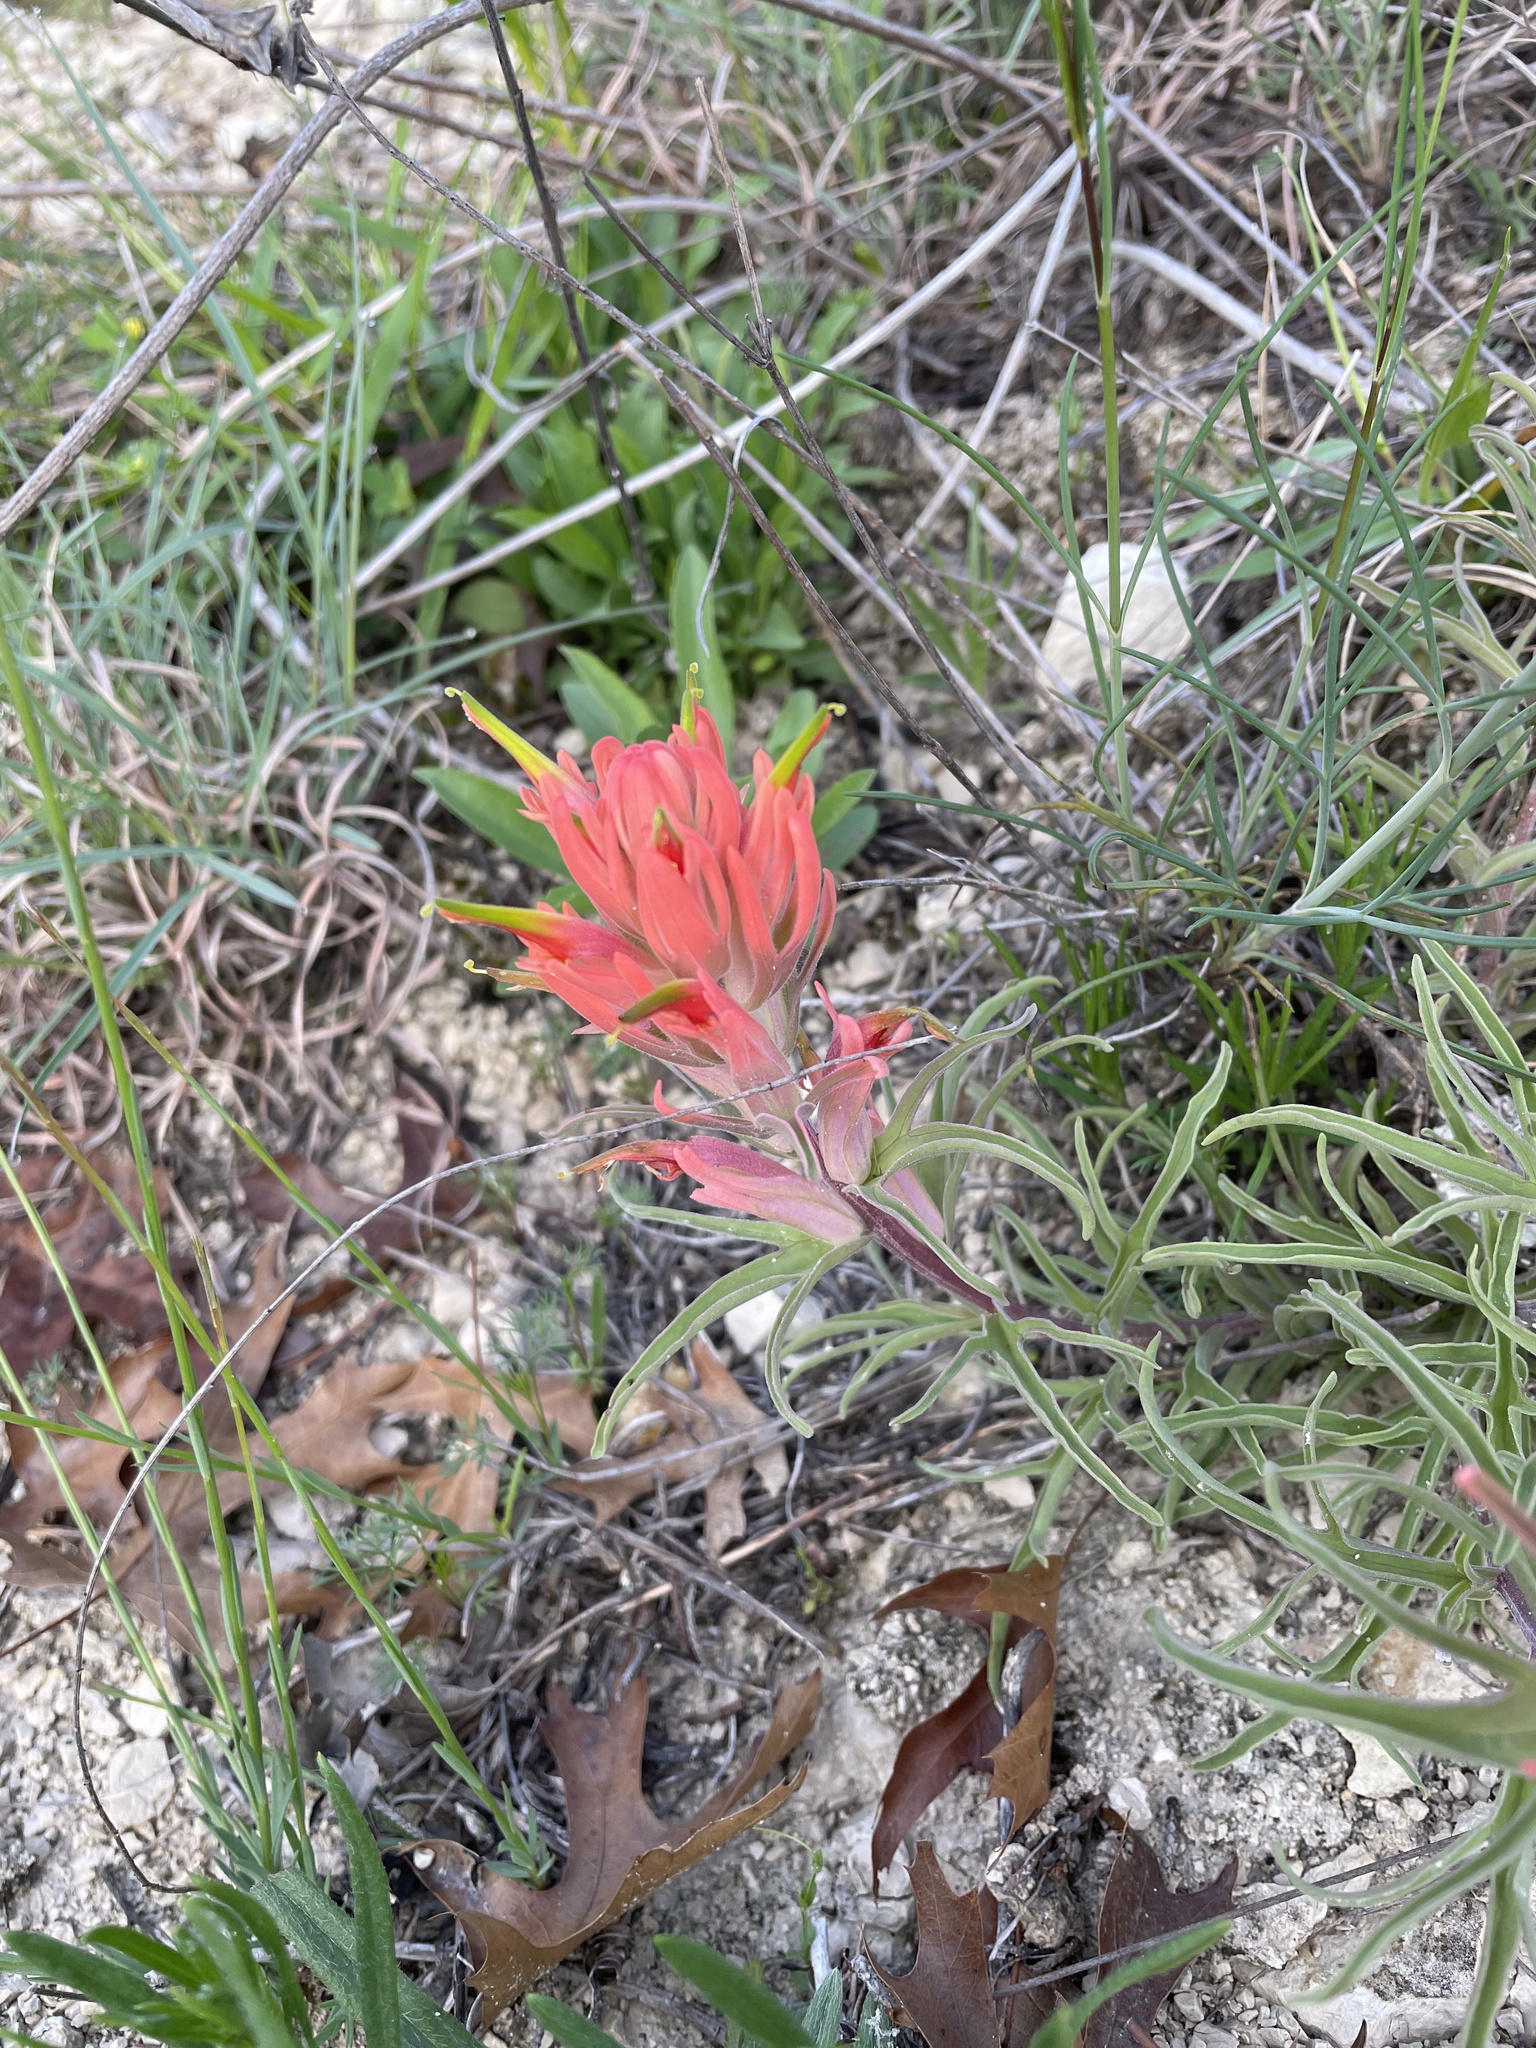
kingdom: Plantae
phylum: Tracheophyta
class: Magnoliopsida
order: Lamiales
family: Orobanchaceae
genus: Castilleja
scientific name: Castilleja lindheimeri
